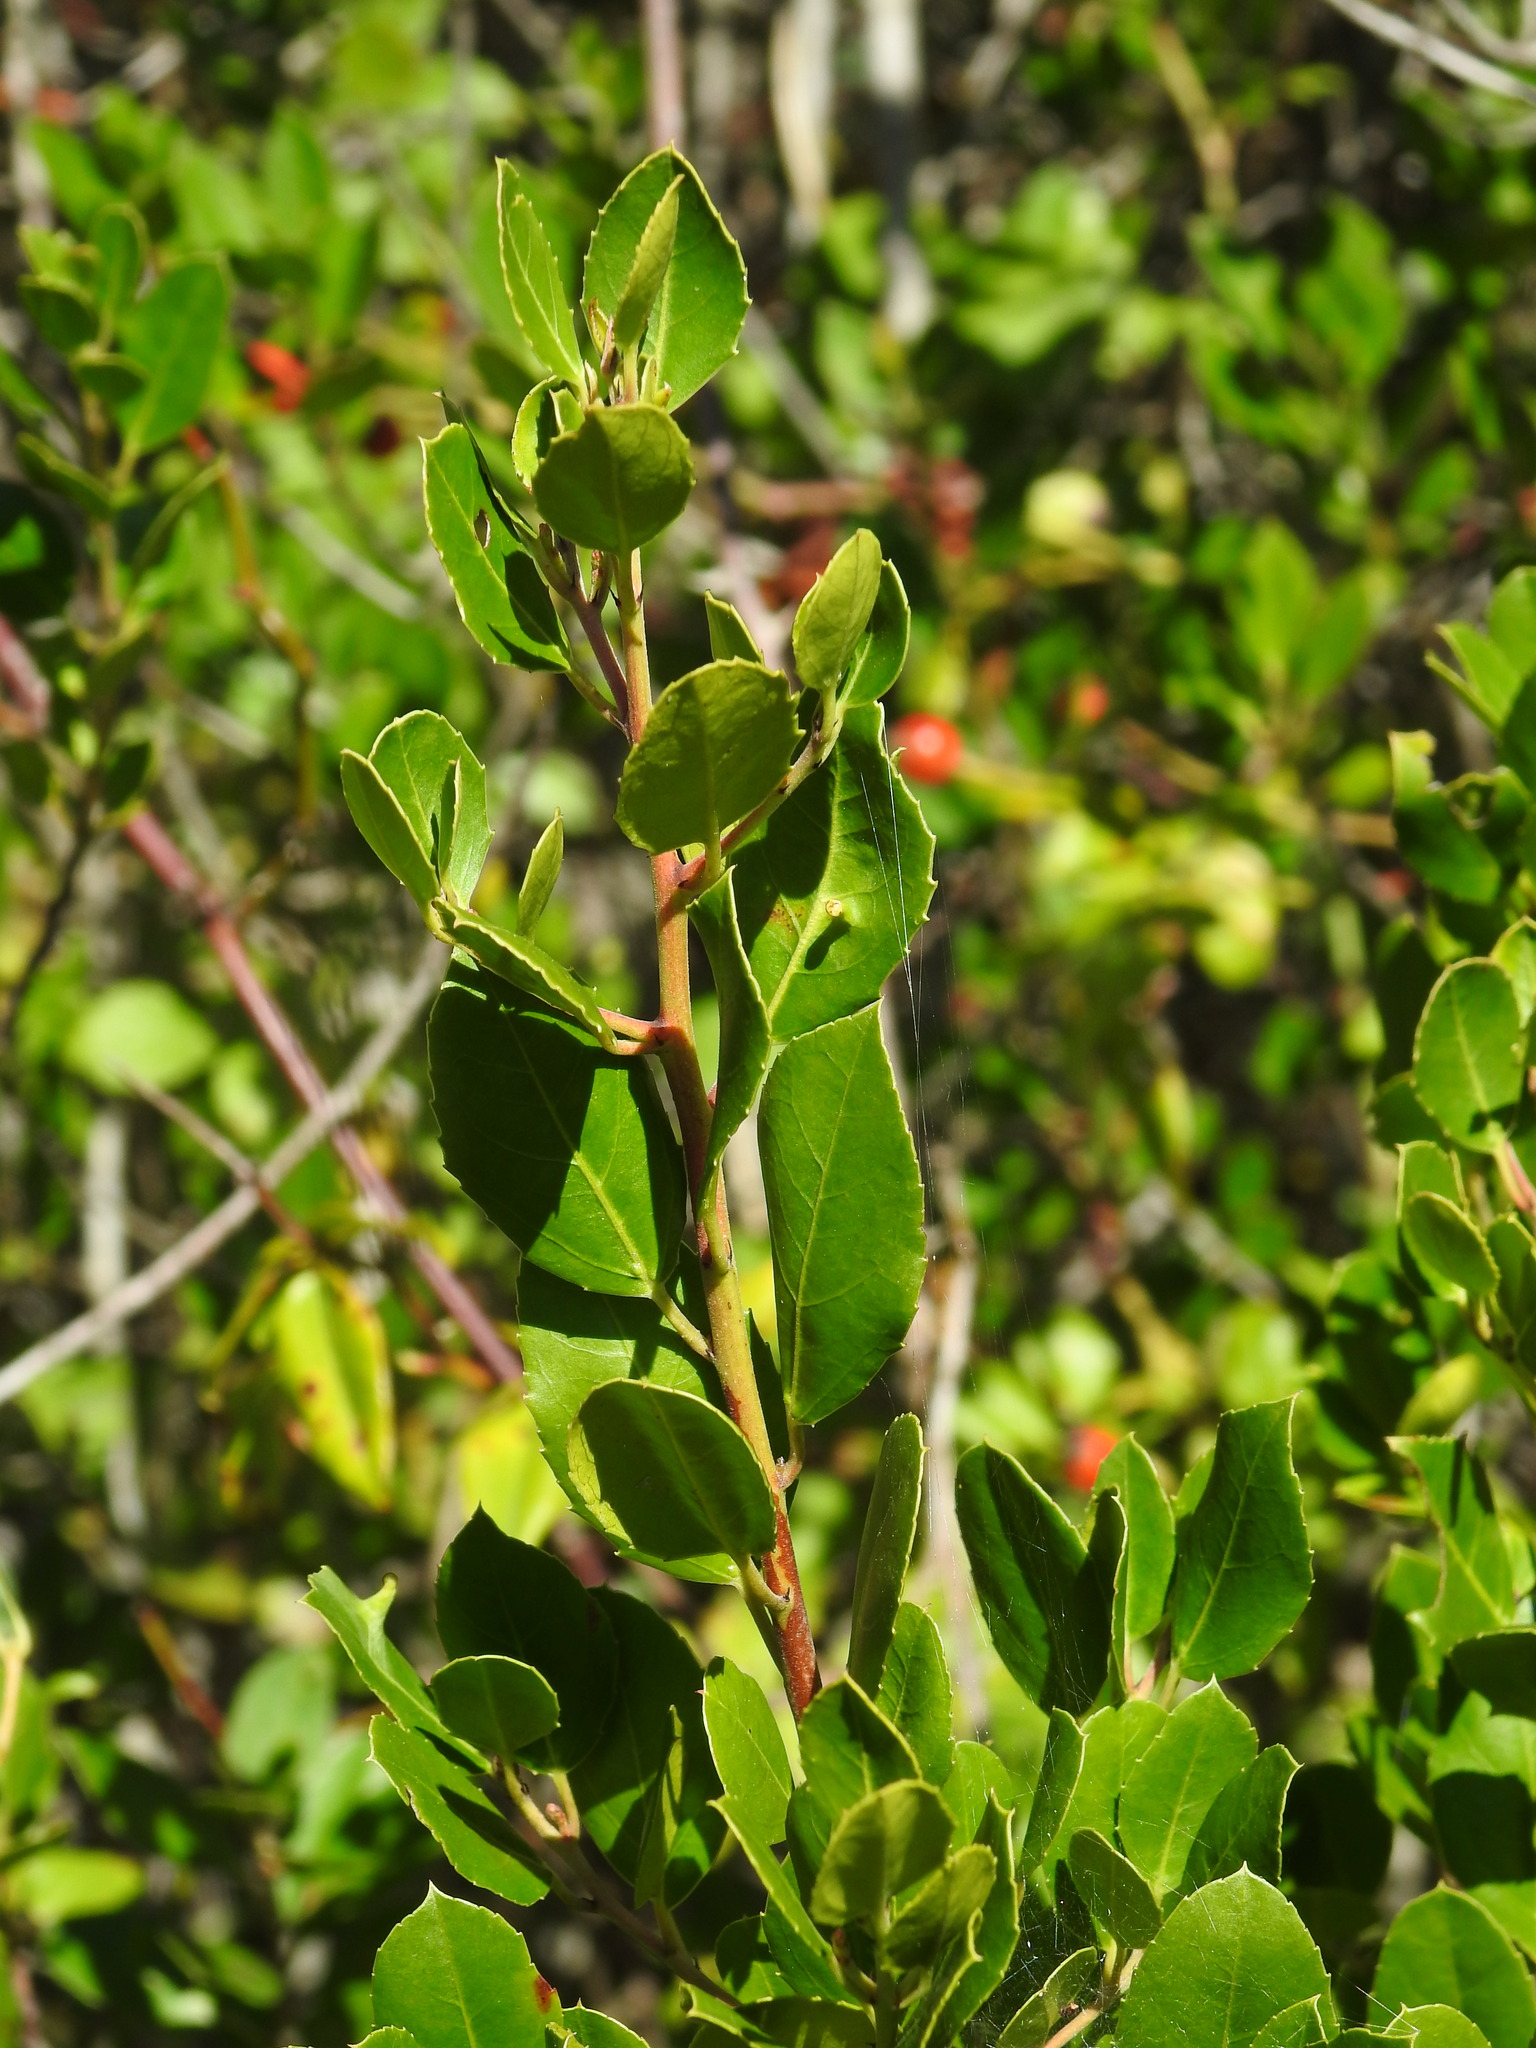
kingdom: Plantae
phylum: Tracheophyta
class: Magnoliopsida
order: Rosales
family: Rhamnaceae
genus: Rhamnus
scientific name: Rhamnus alaternus
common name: Mediterranean buckthorn
